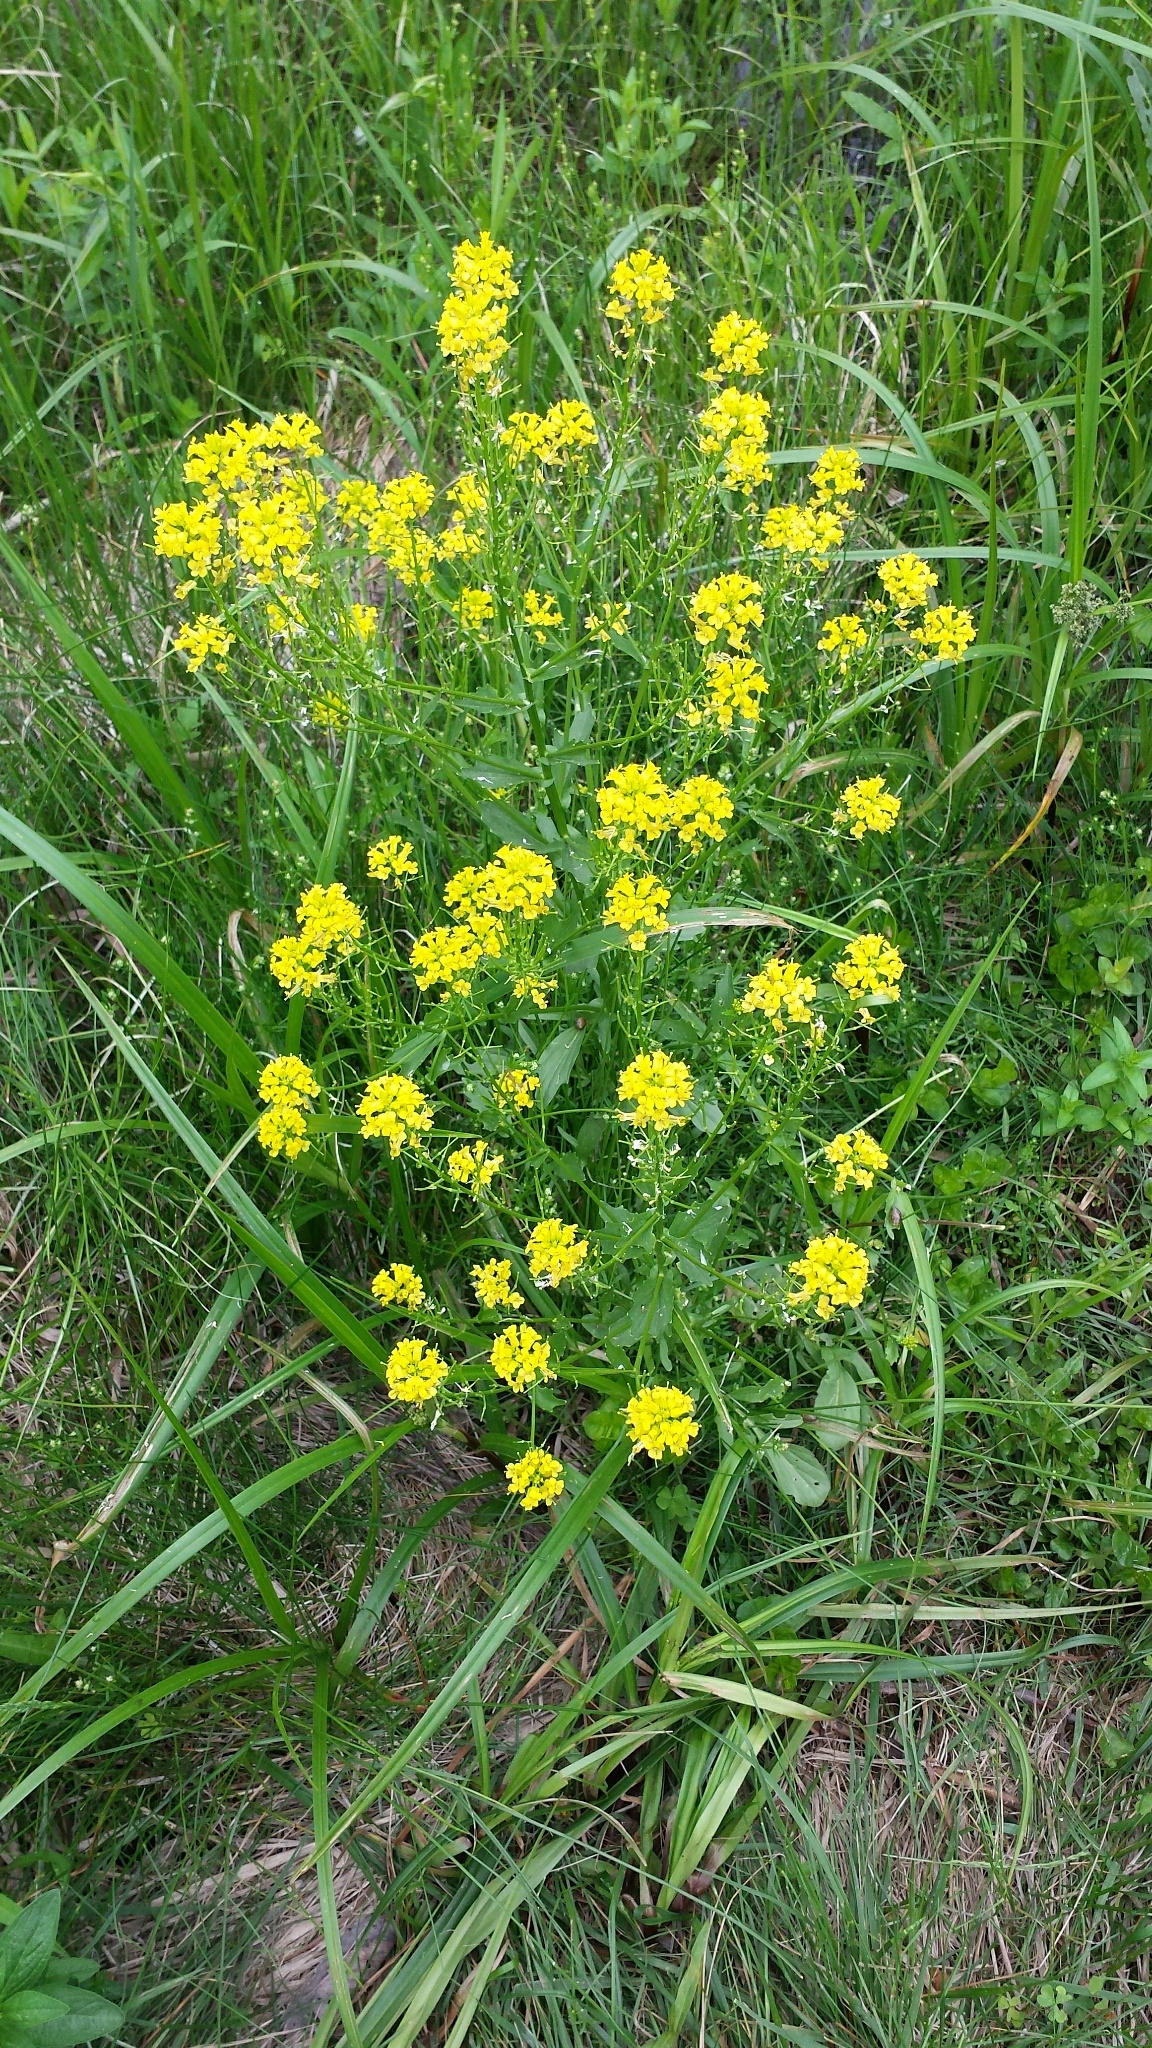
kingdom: Plantae
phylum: Tracheophyta
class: Magnoliopsida
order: Brassicales
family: Brassicaceae
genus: Barbarea
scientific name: Barbarea vulgaris
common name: Cressy-greens
